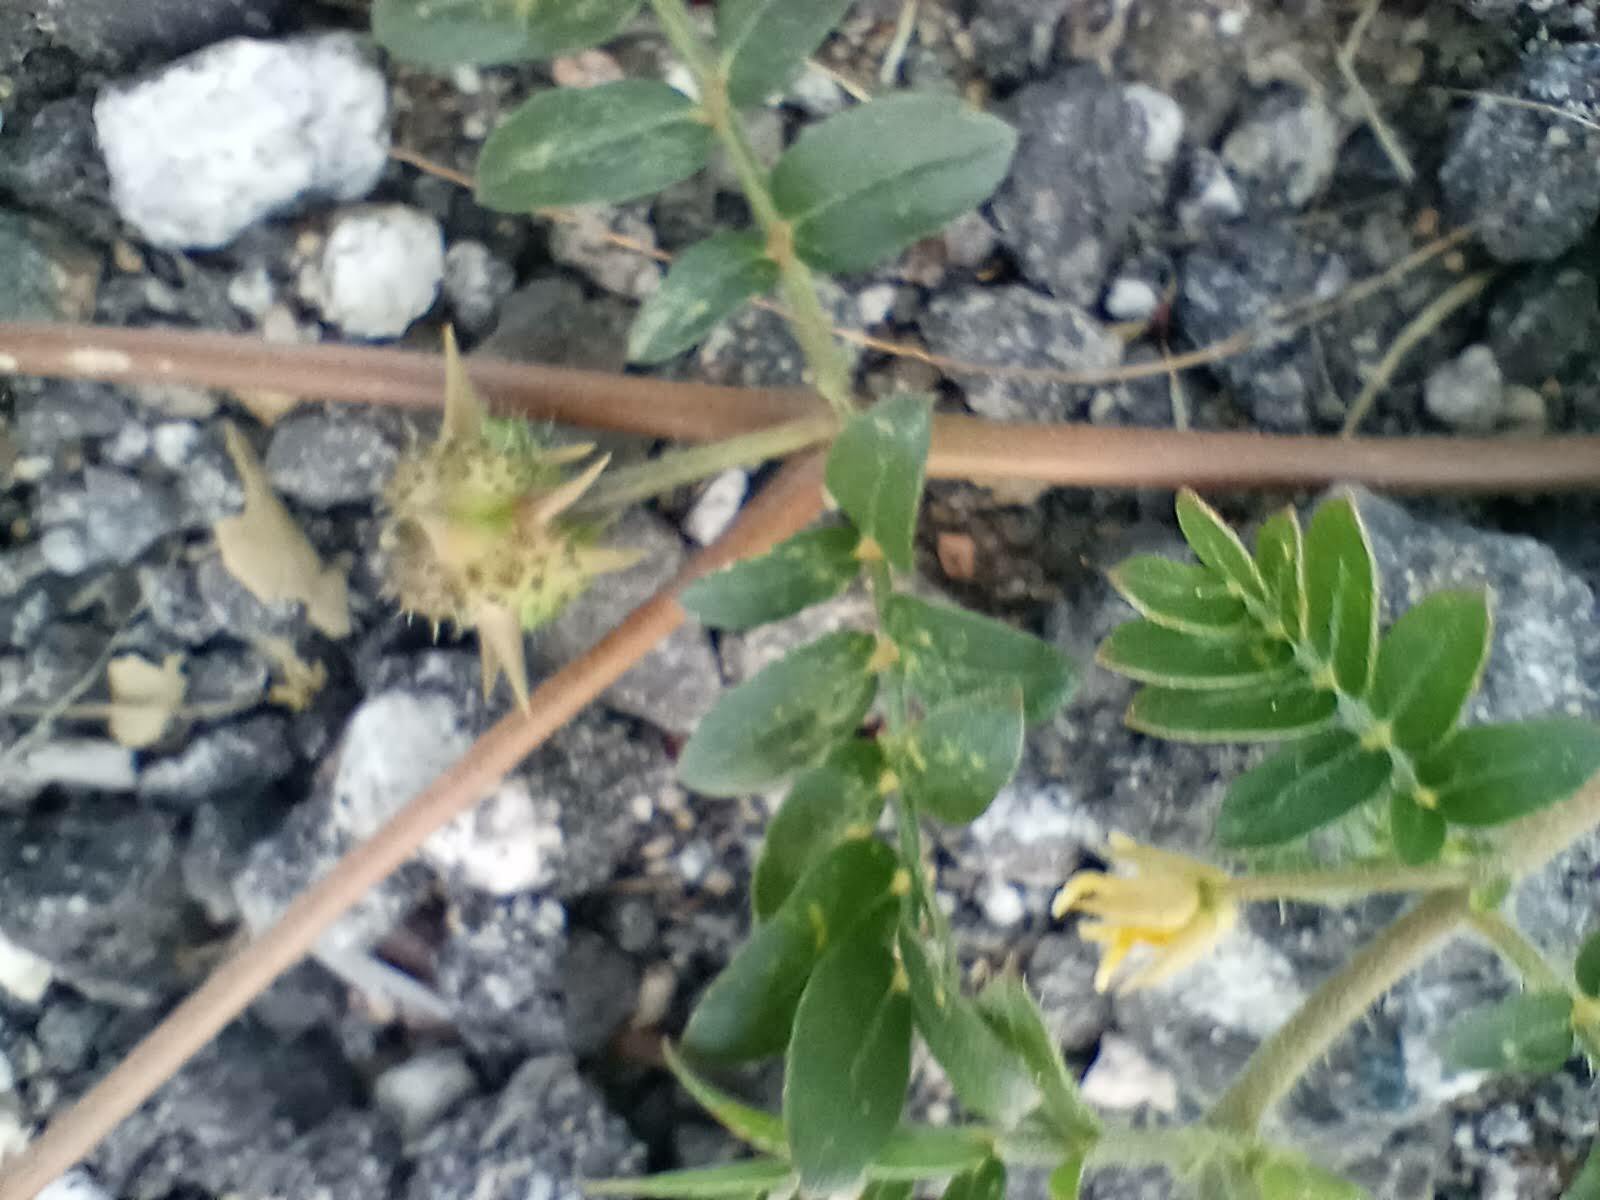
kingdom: Plantae
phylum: Tracheophyta
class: Magnoliopsida
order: Zygophyllales
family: Zygophyllaceae
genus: Tribulus
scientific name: Tribulus terrestris
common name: Puncturevine
